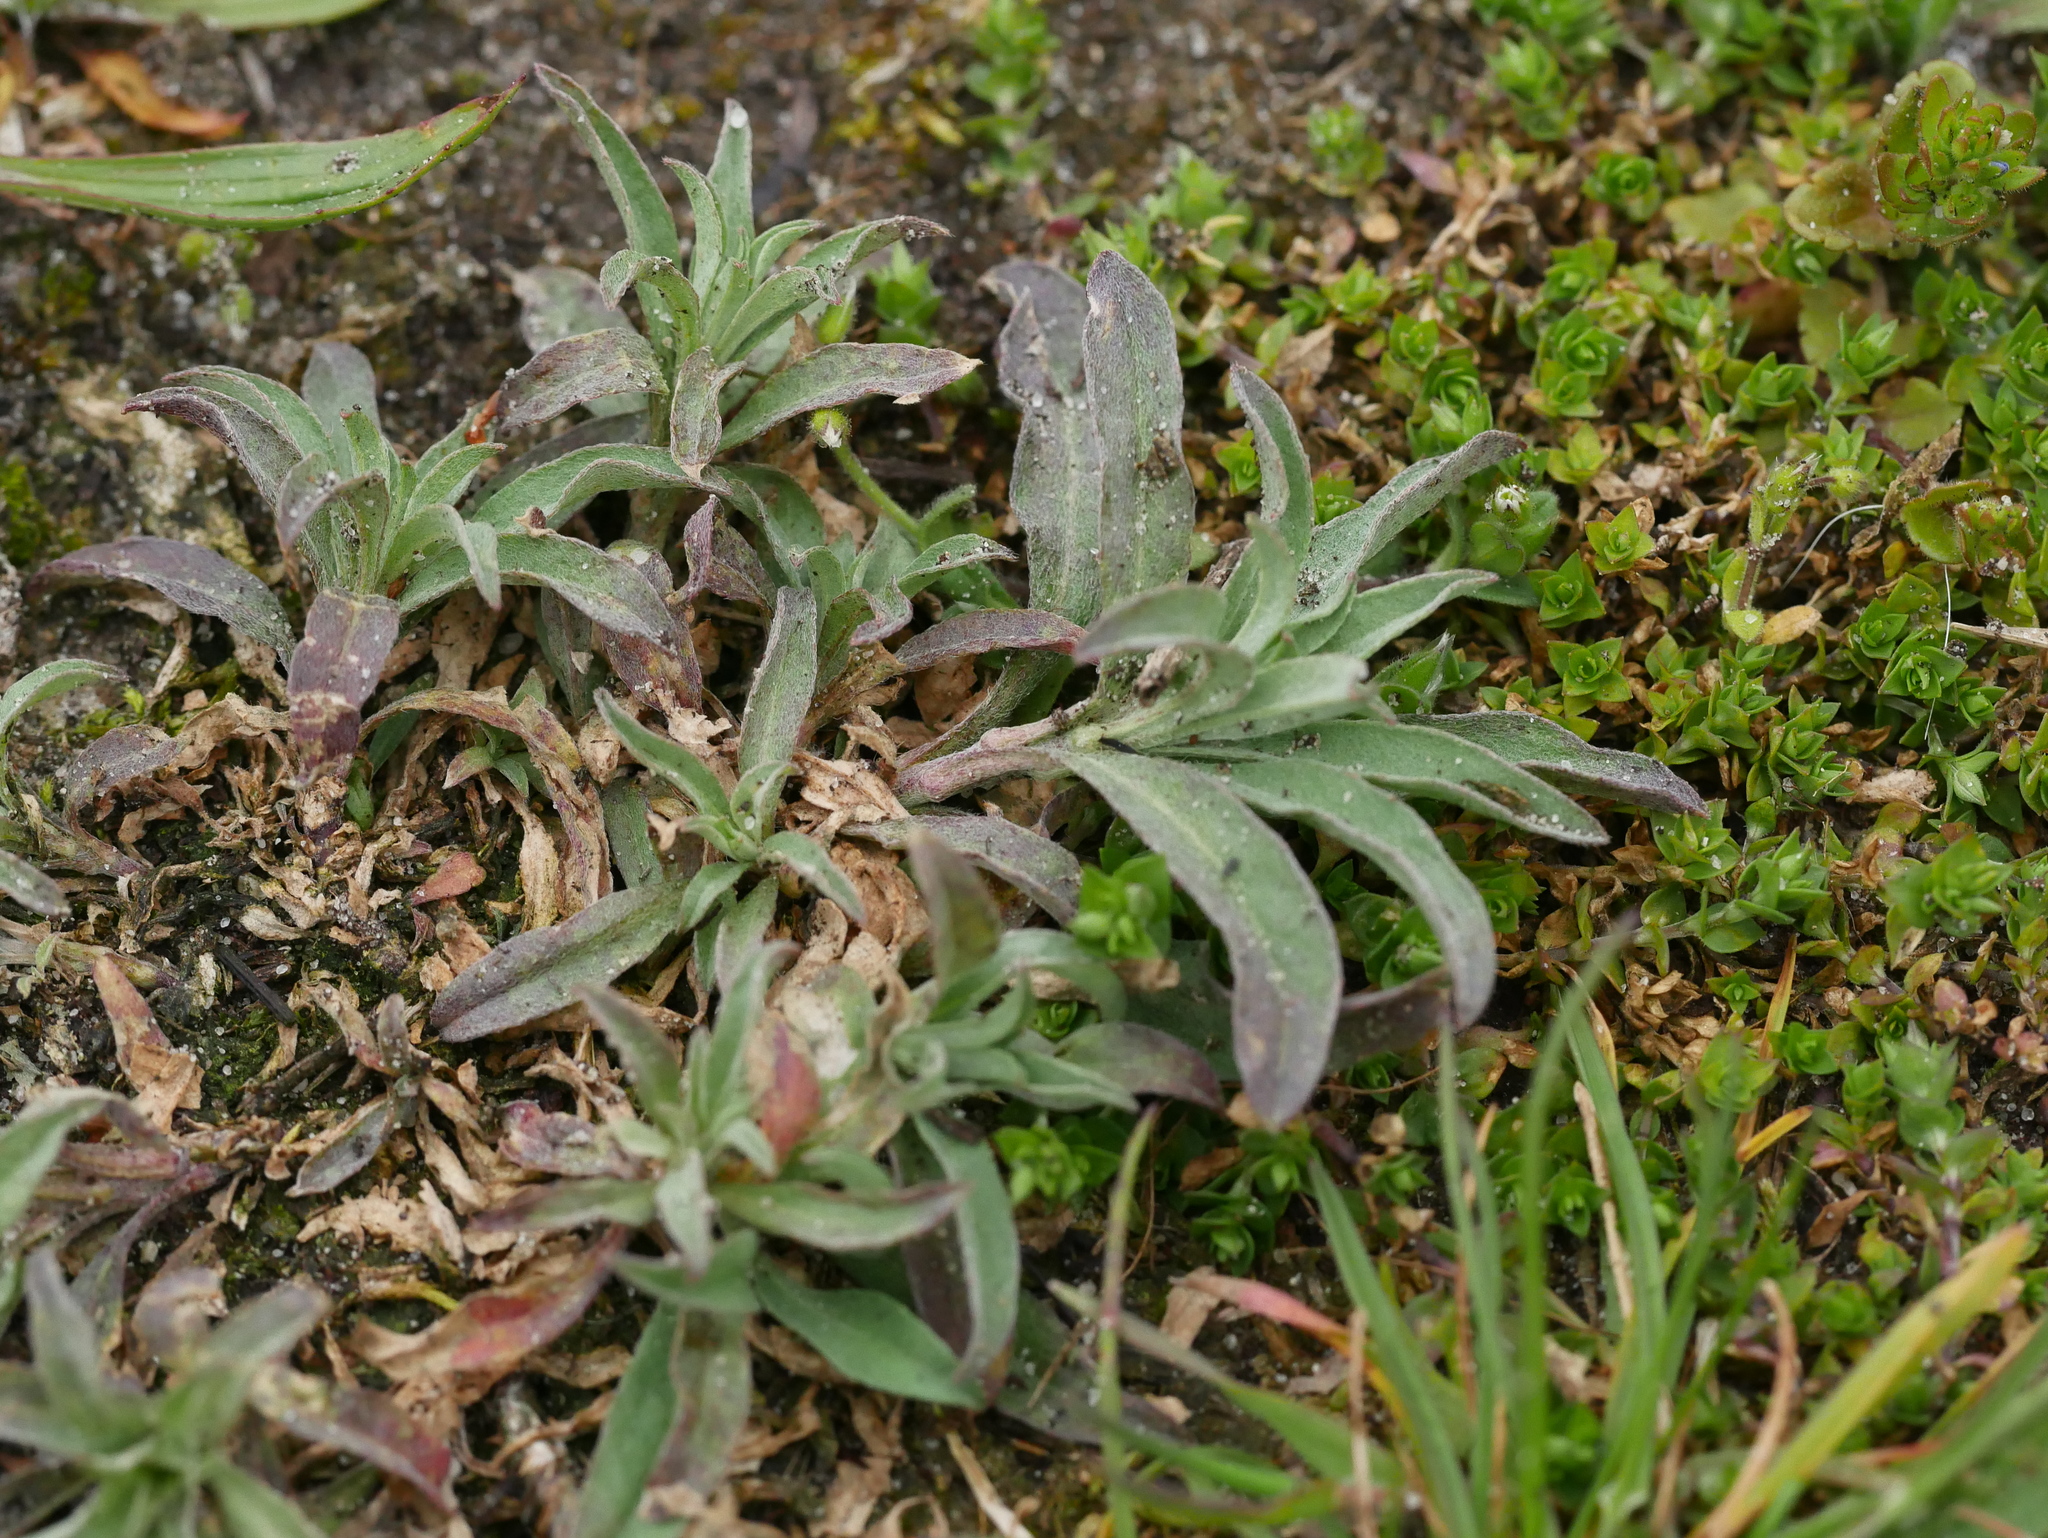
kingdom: Plantae
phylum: Tracheophyta
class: Magnoliopsida
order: Brassicales
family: Brassicaceae
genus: Berteroa
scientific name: Berteroa incana
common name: Hoary alison
